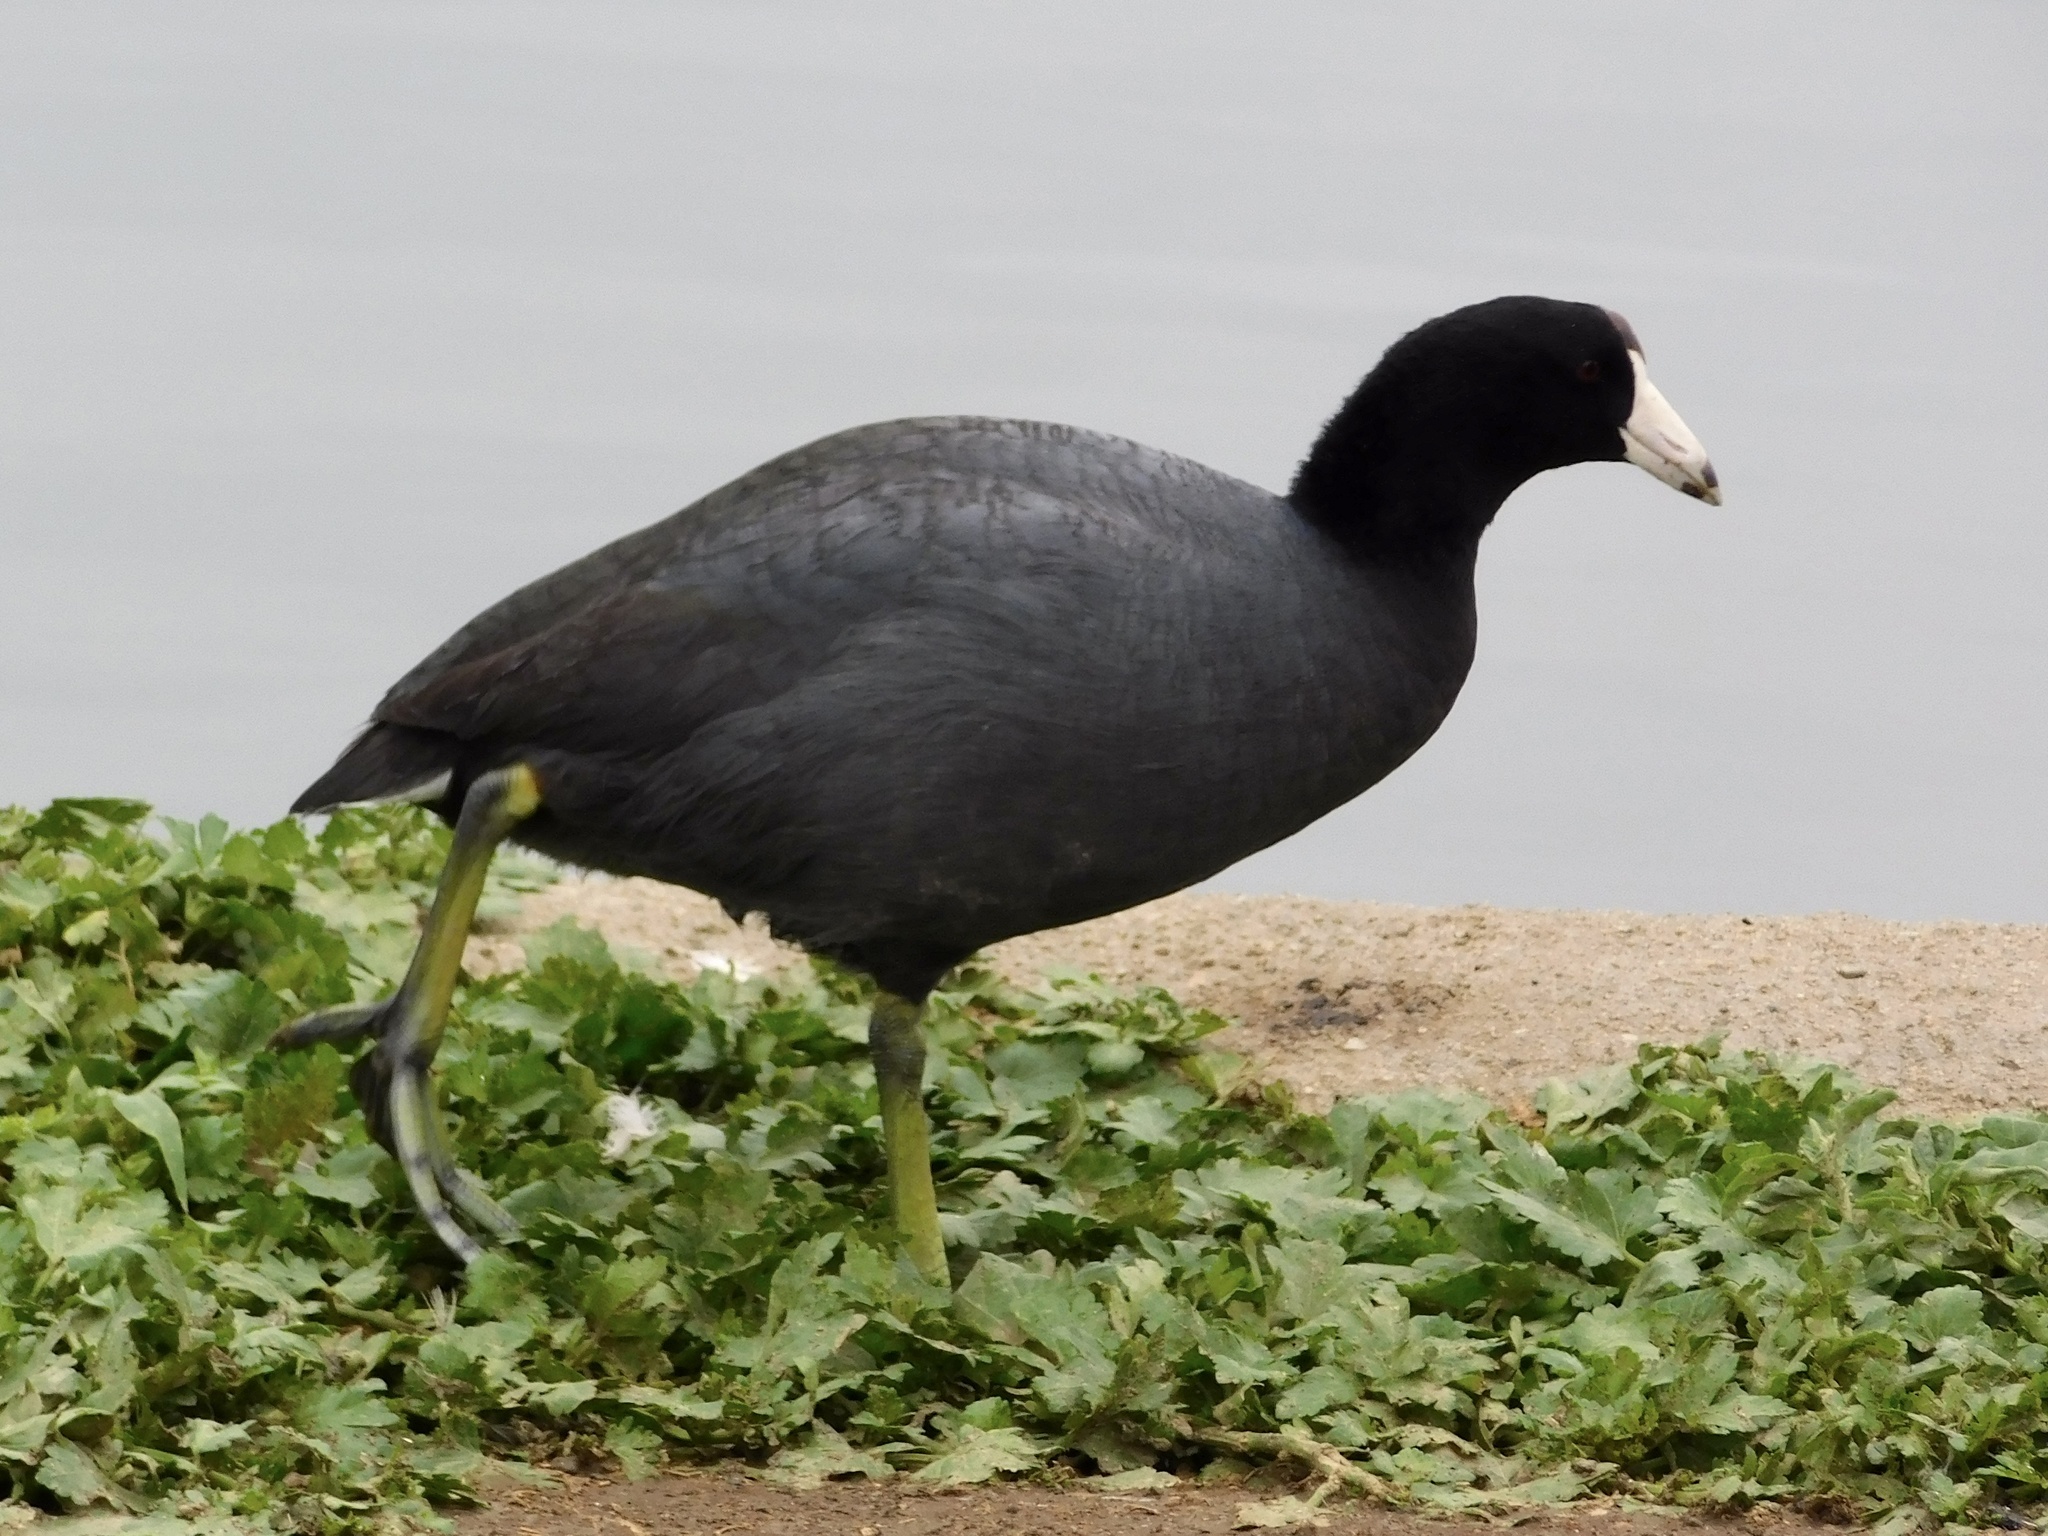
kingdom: Animalia
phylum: Chordata
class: Aves
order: Gruiformes
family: Rallidae
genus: Fulica
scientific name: Fulica americana
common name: American coot
